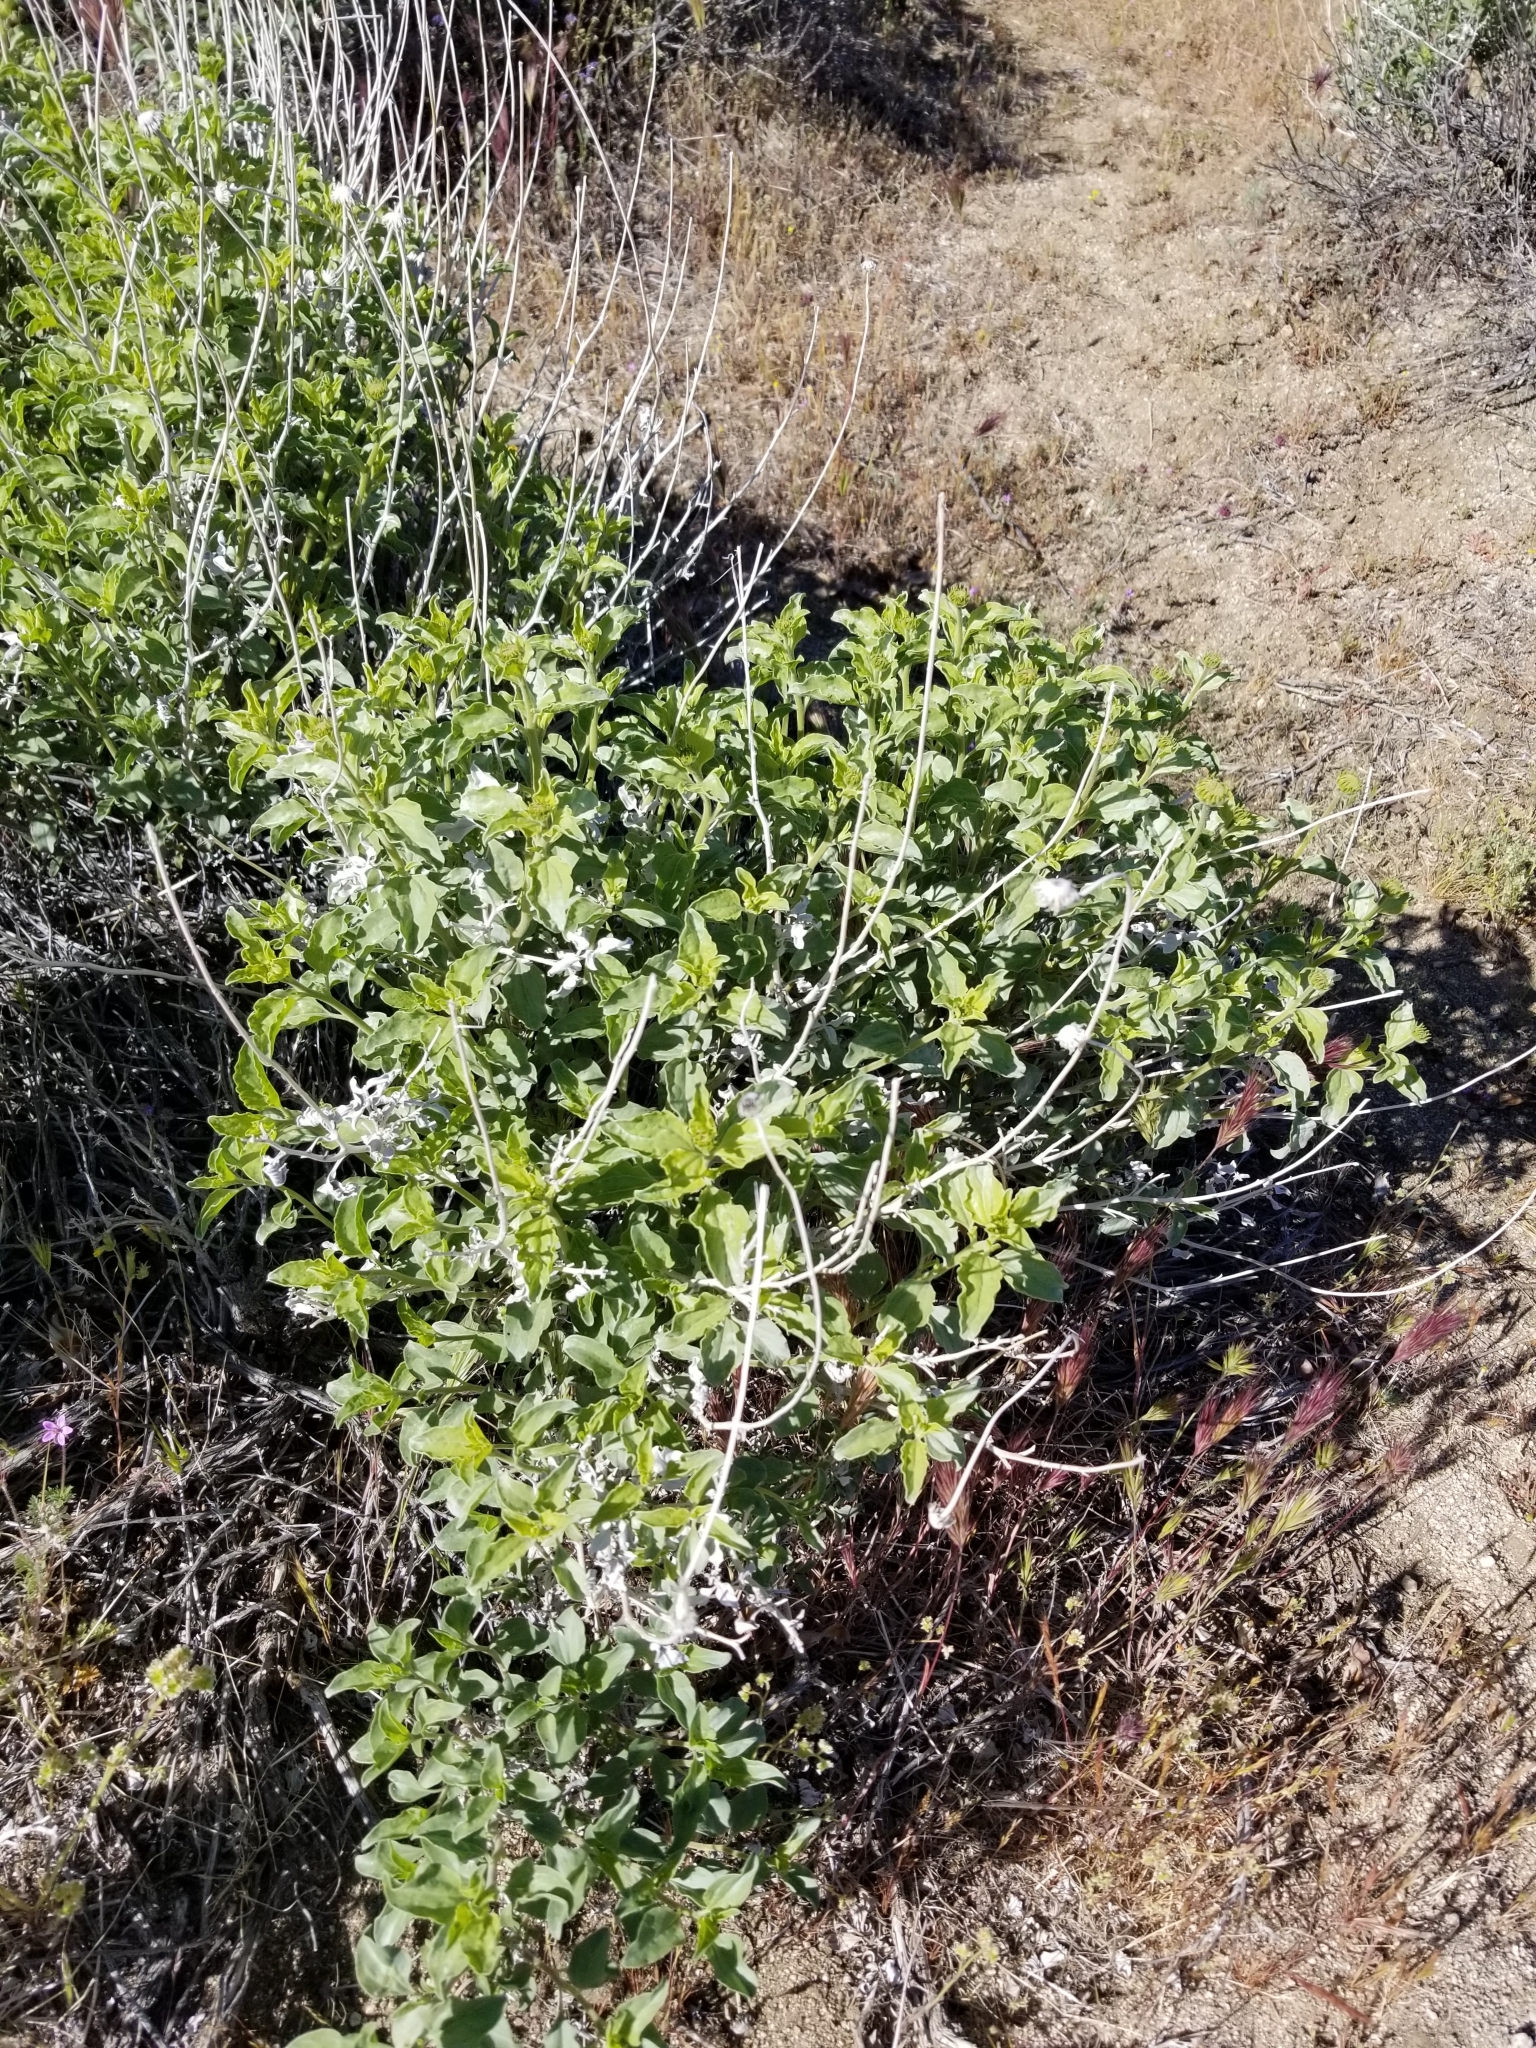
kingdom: Plantae
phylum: Tracheophyta
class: Magnoliopsida
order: Asterales
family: Asteraceae
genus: Encelia
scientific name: Encelia actoni
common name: Acton encelia
